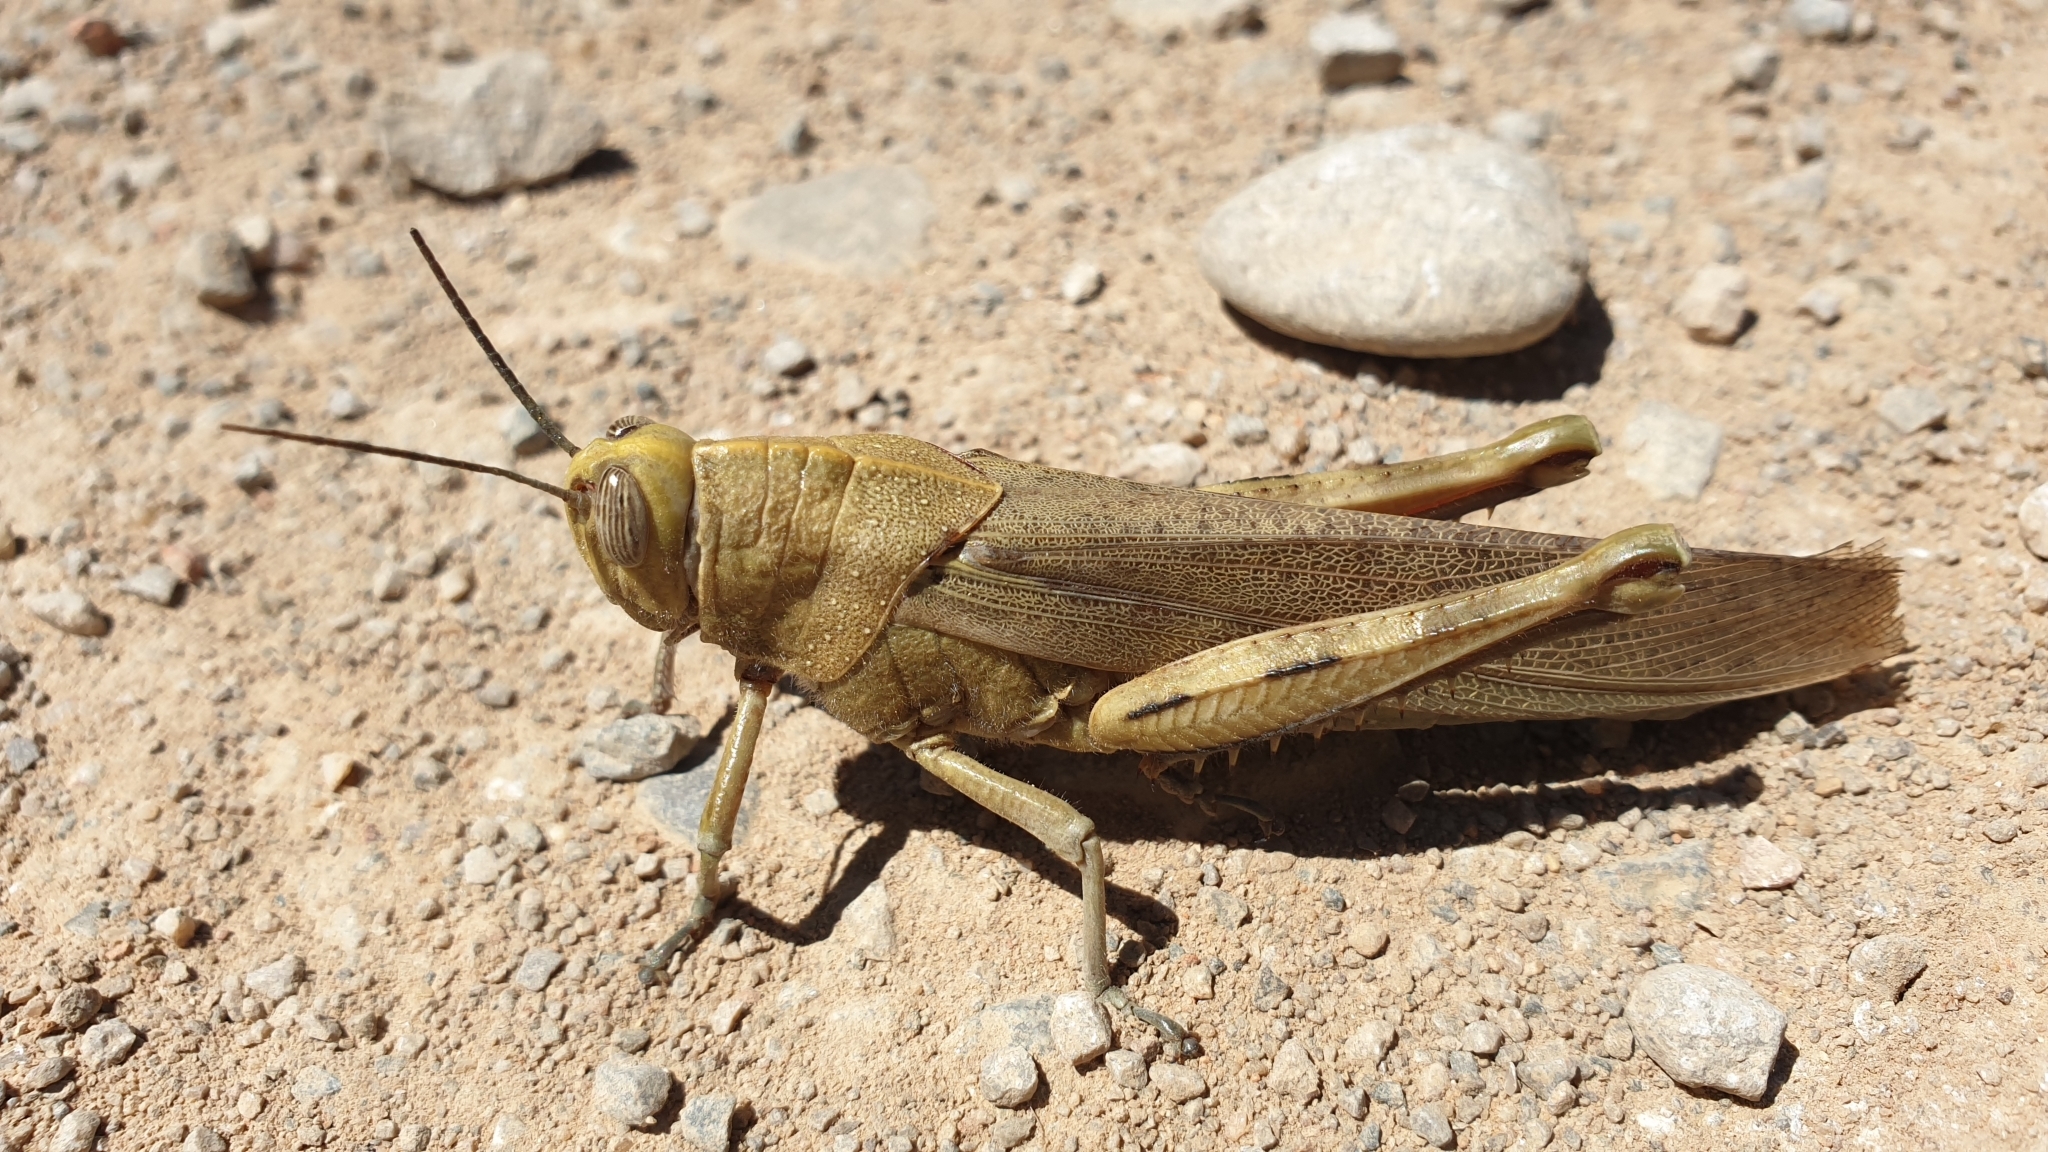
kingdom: Animalia
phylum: Arthropoda
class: Insecta
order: Orthoptera
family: Acrididae
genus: Anacridium
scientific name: Anacridium aegyptium
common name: Egyptian grasshopper
